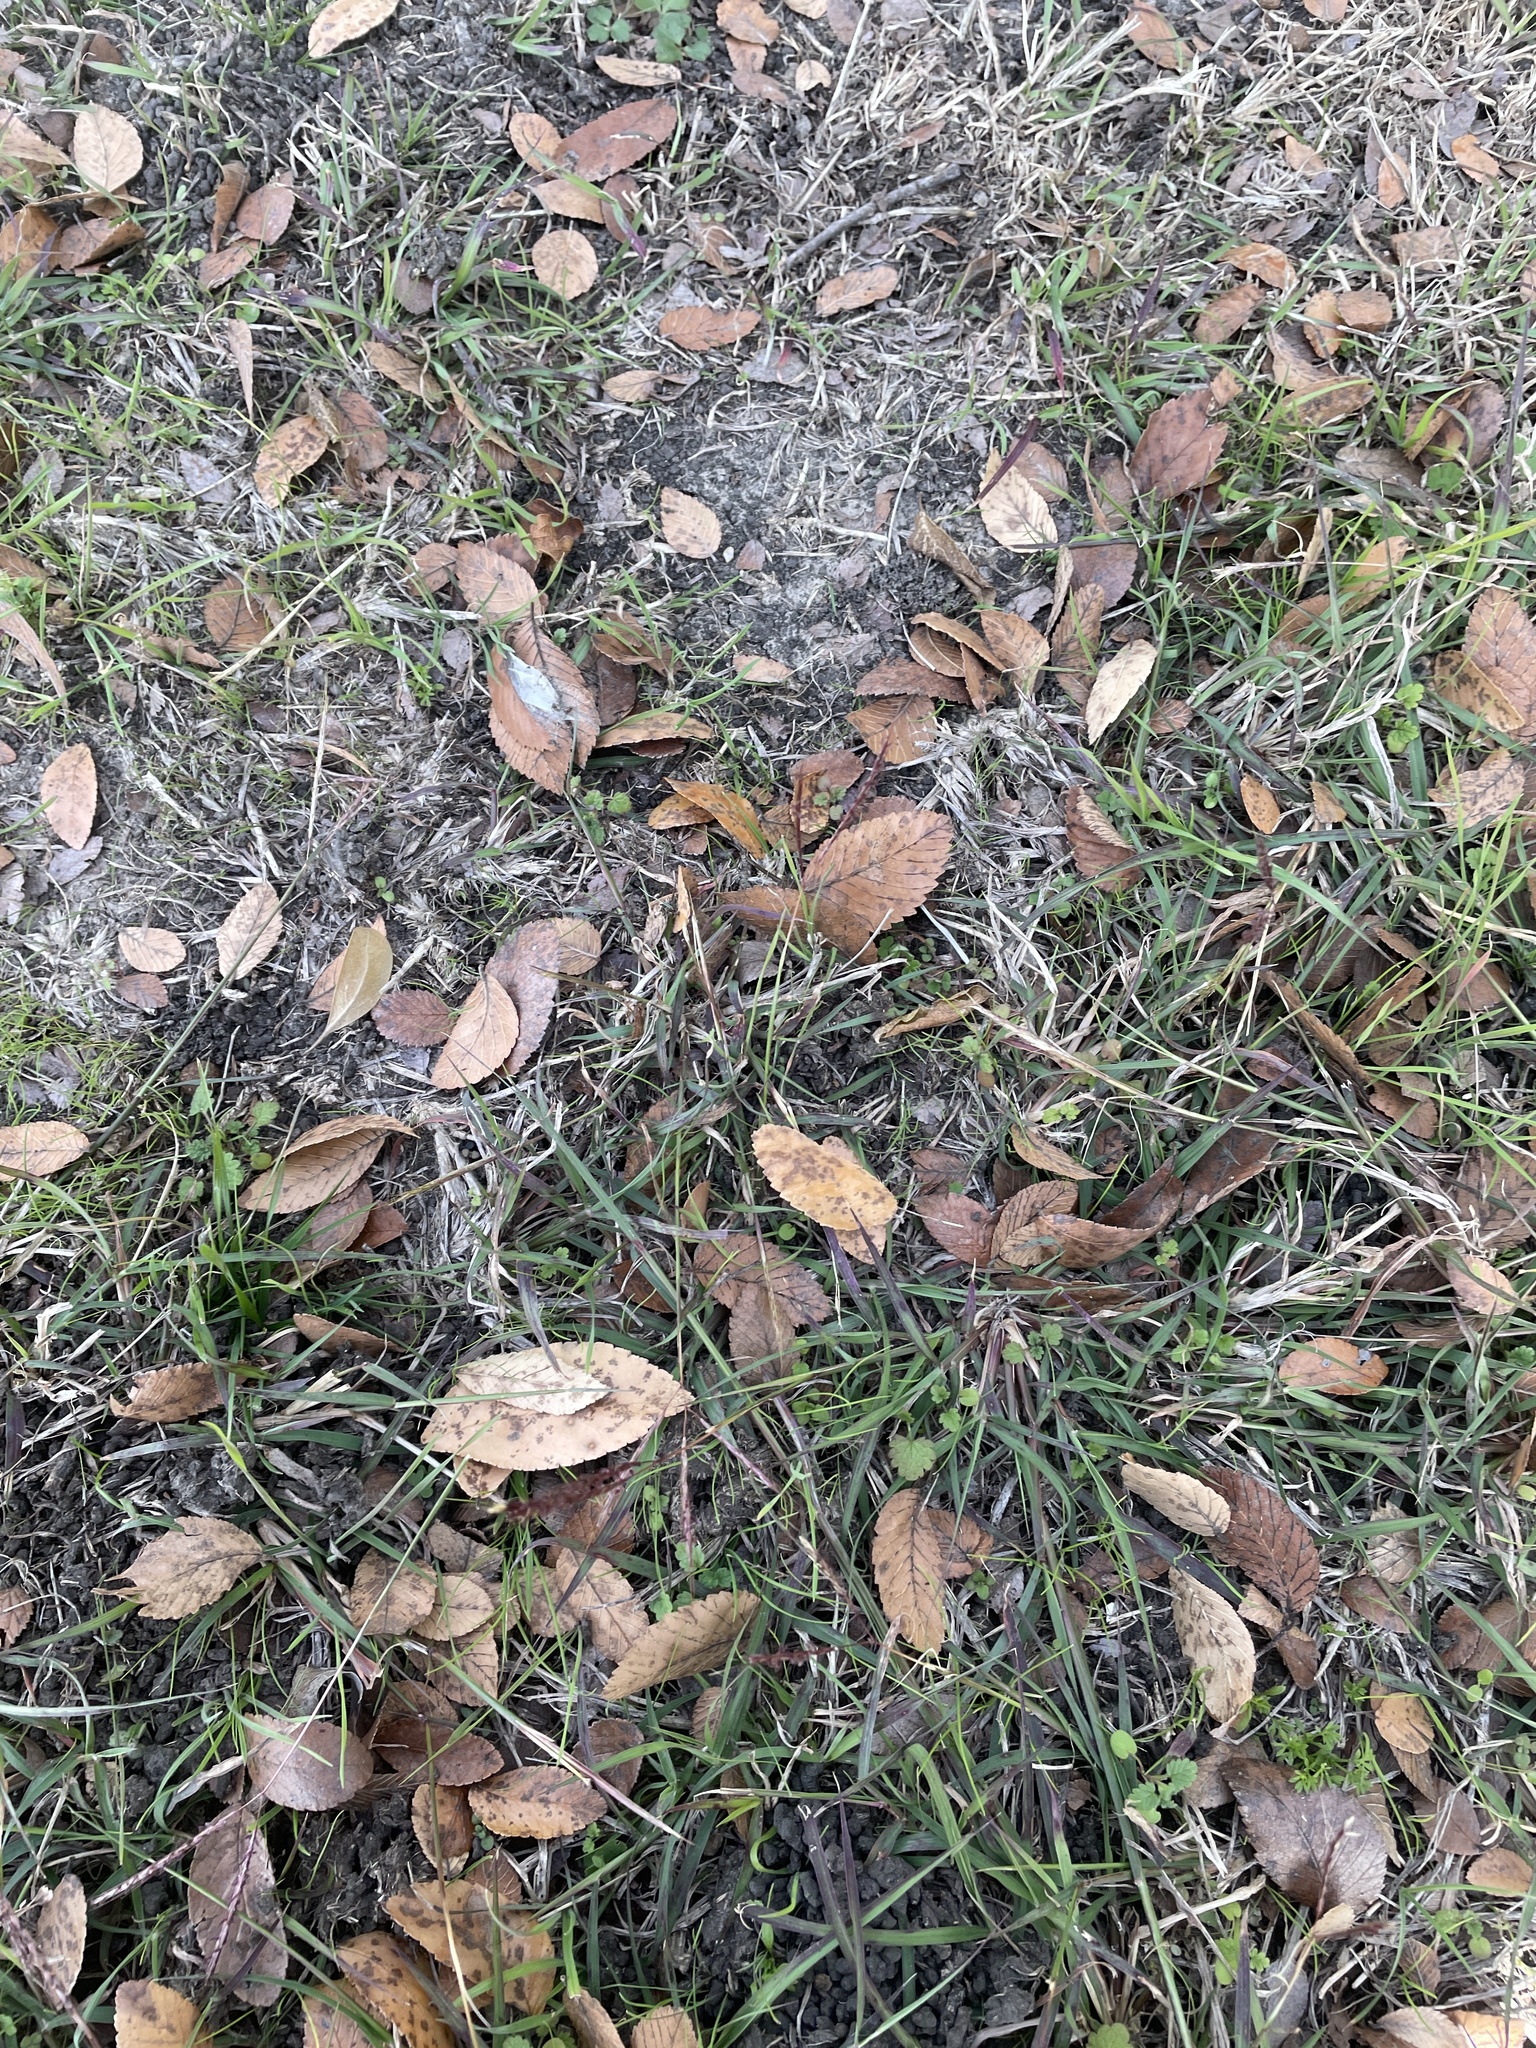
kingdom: Plantae
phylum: Tracheophyta
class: Liliopsida
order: Poales
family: Poaceae
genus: Bothriochloa
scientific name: Bothriochloa ischaemum
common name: Yellow bluestem
